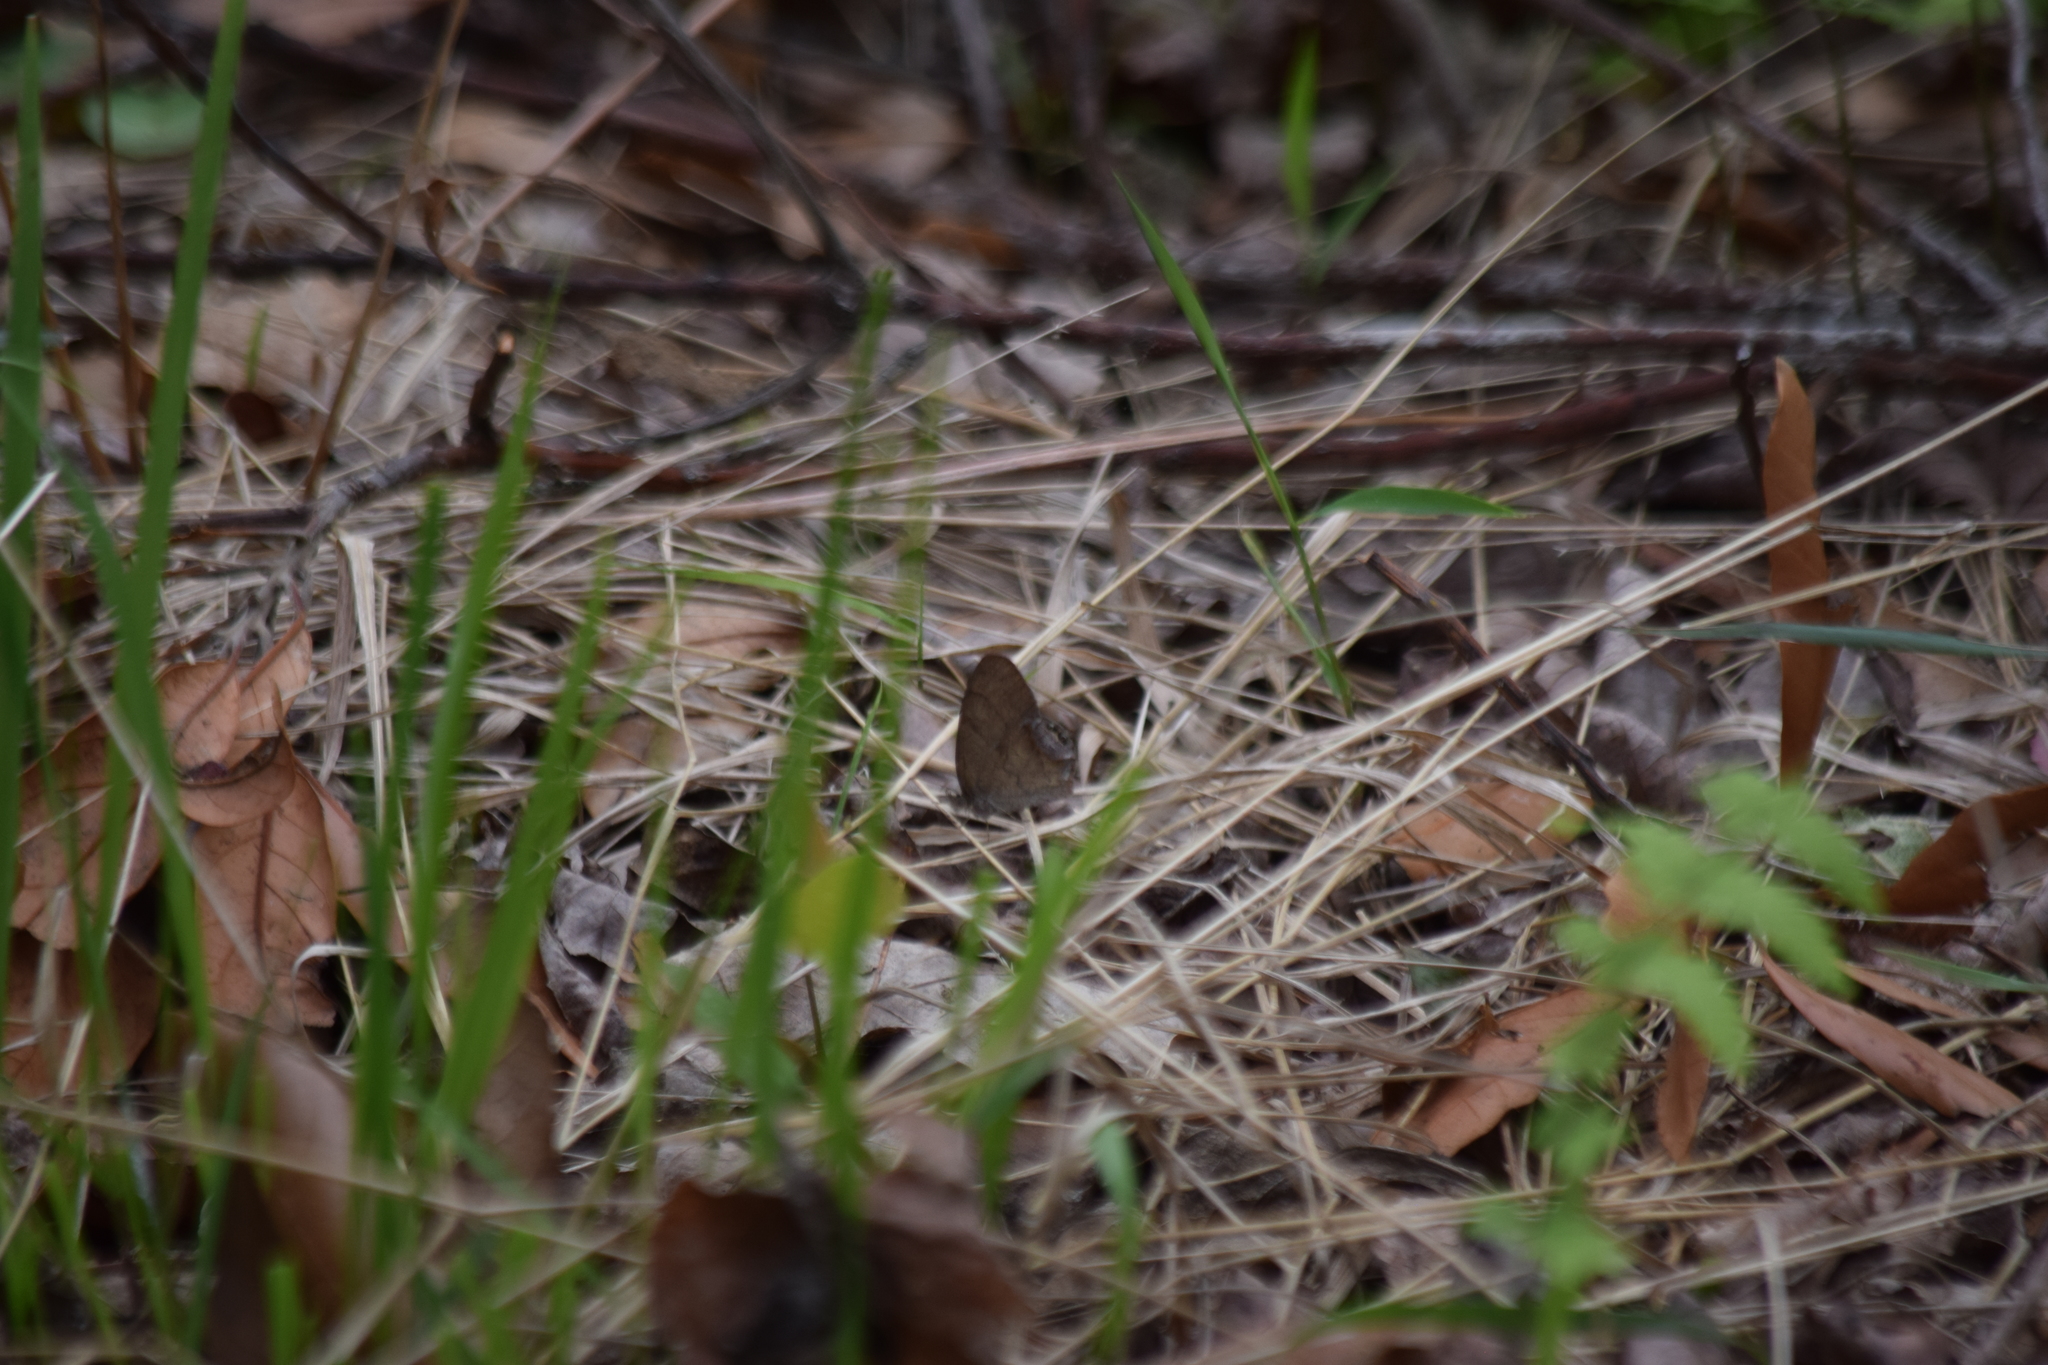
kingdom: Animalia
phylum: Arthropoda
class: Insecta
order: Lepidoptera
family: Nymphalidae
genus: Euptychia
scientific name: Euptychia cornelius
